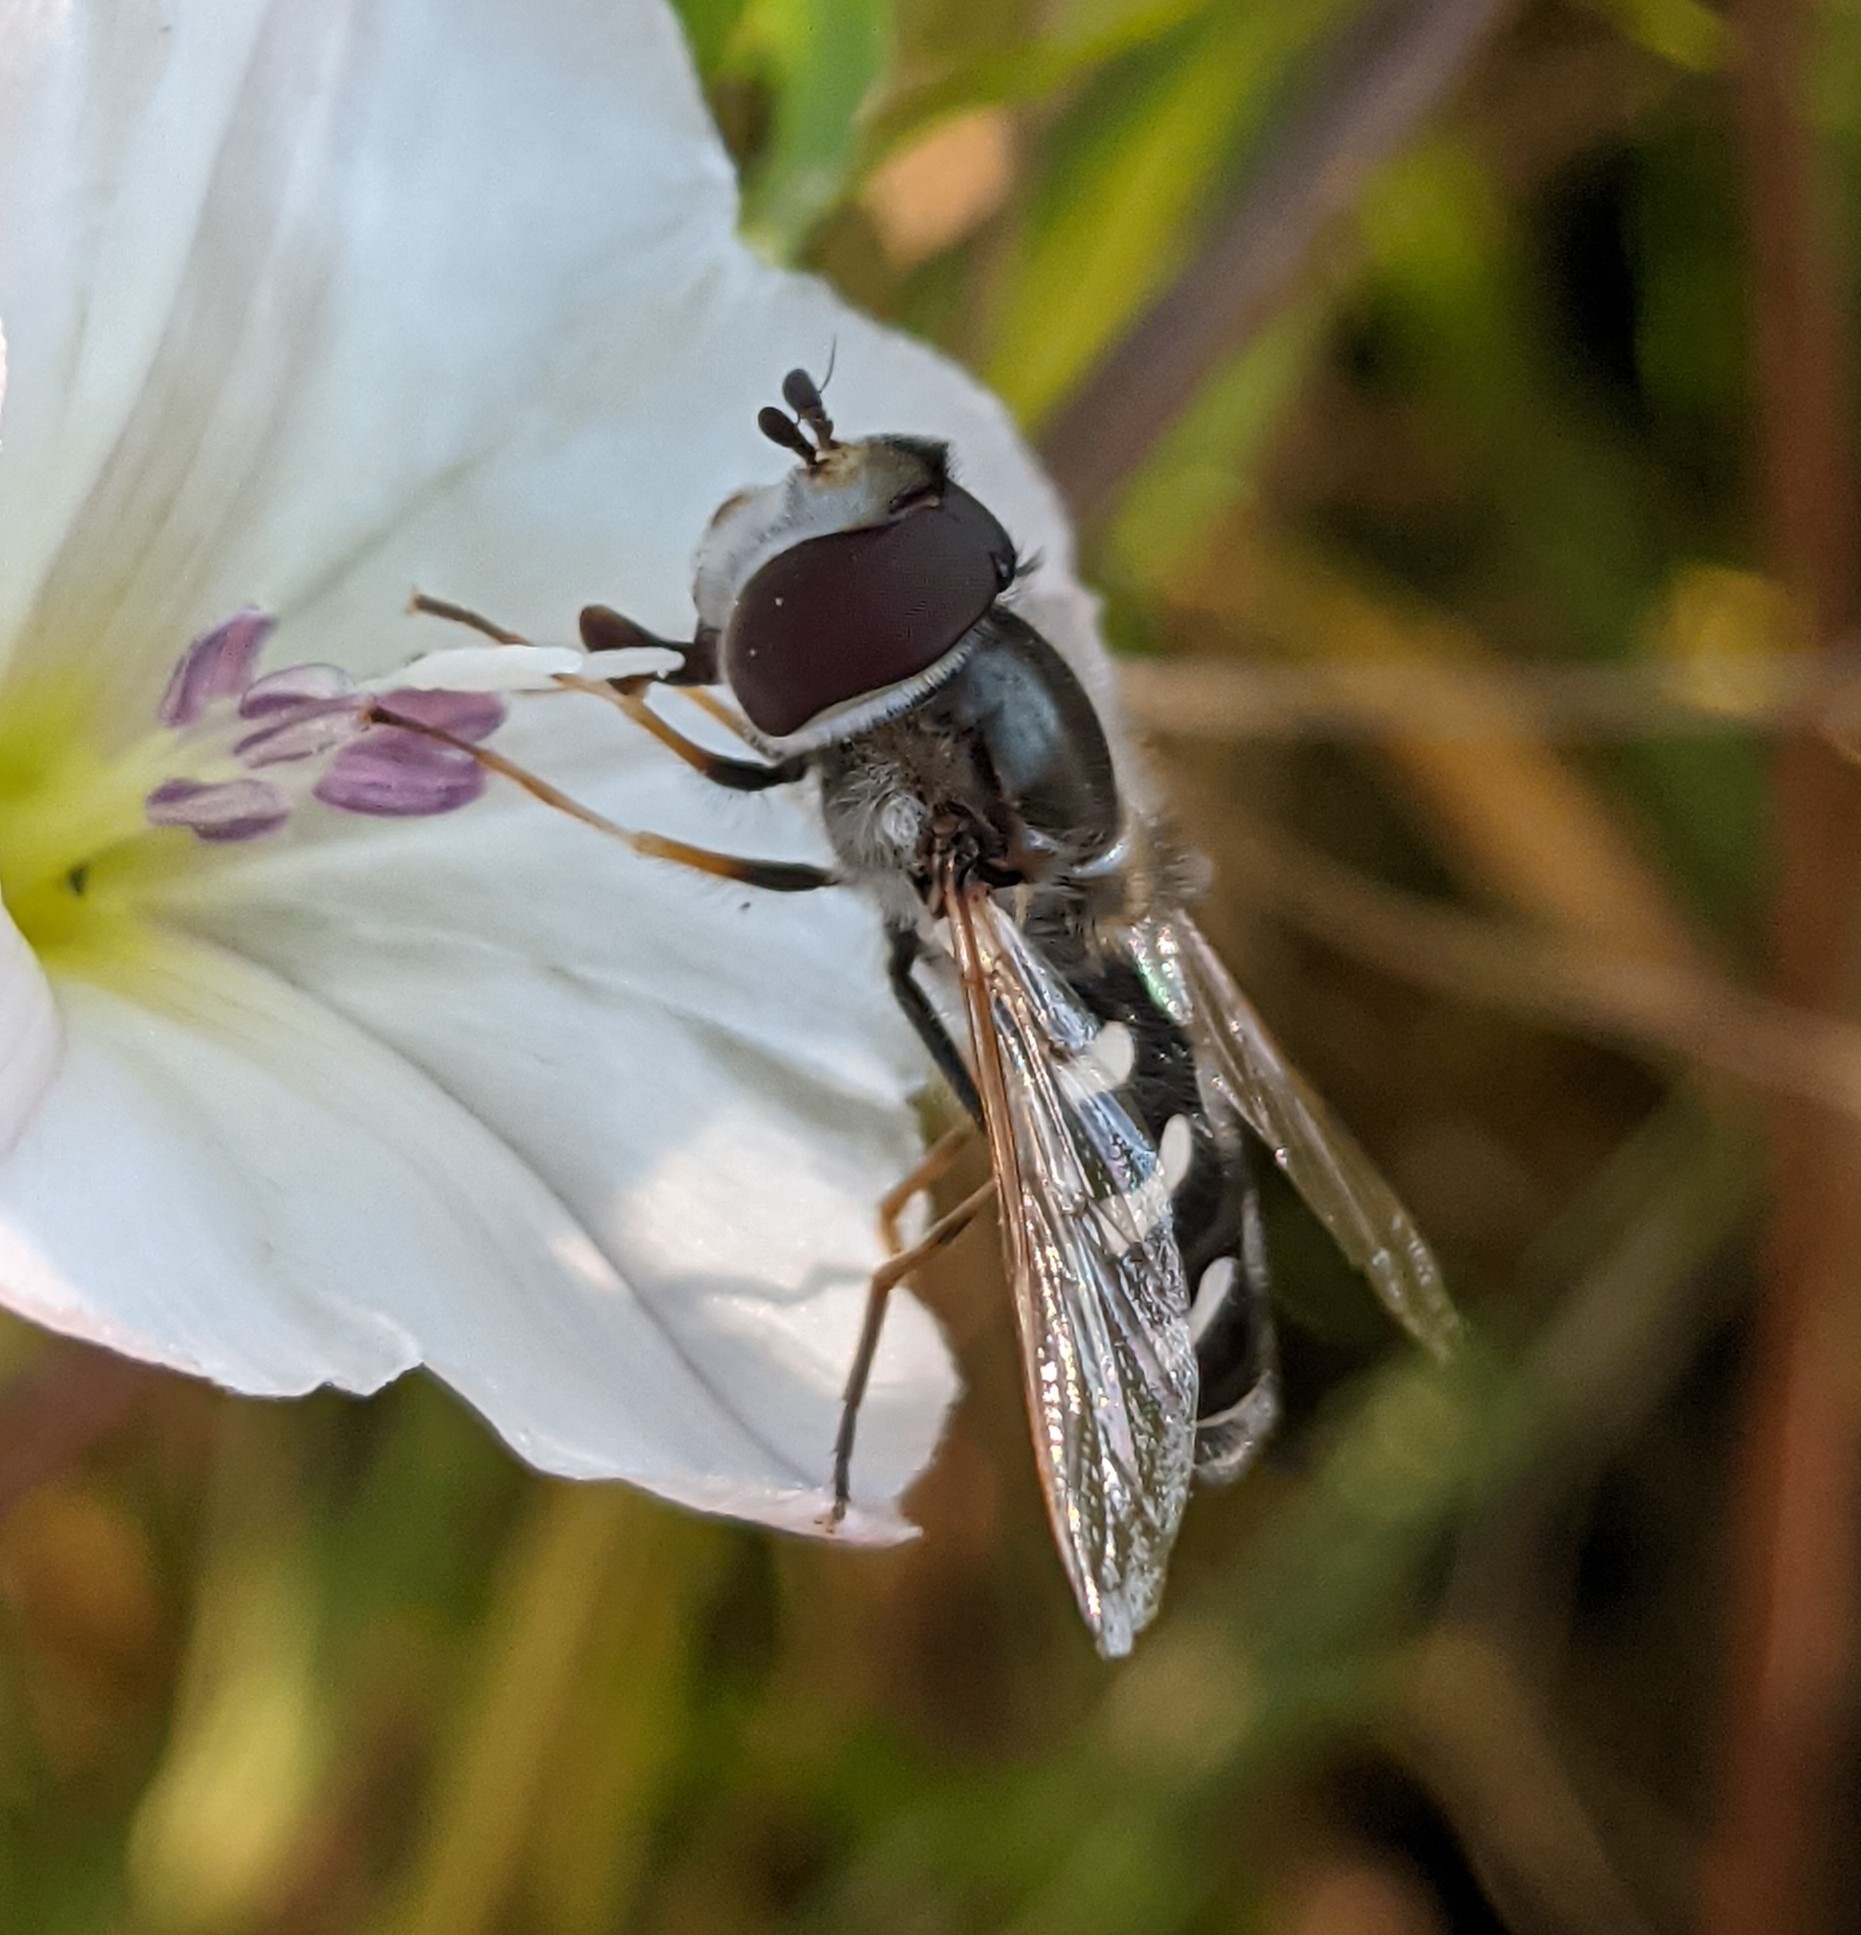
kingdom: Animalia
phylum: Arthropoda
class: Insecta
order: Diptera
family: Syrphidae
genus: Scaeva
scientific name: Scaeva pyrastri
